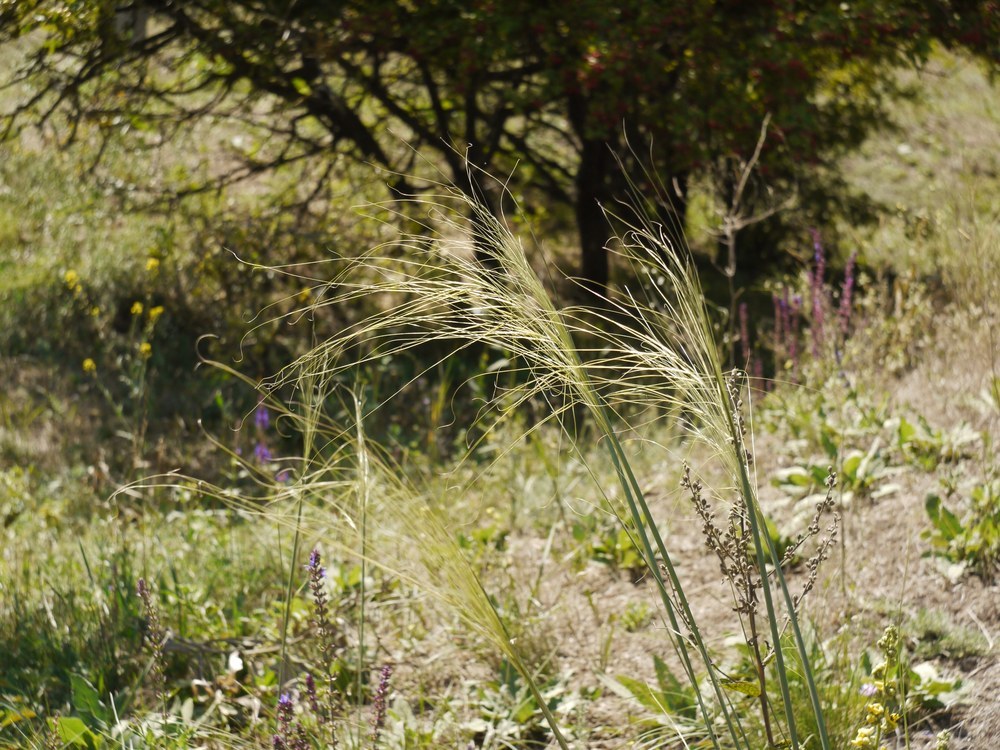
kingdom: Plantae
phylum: Tracheophyta
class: Liliopsida
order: Poales
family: Poaceae
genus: Stipa
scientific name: Stipa capillata
